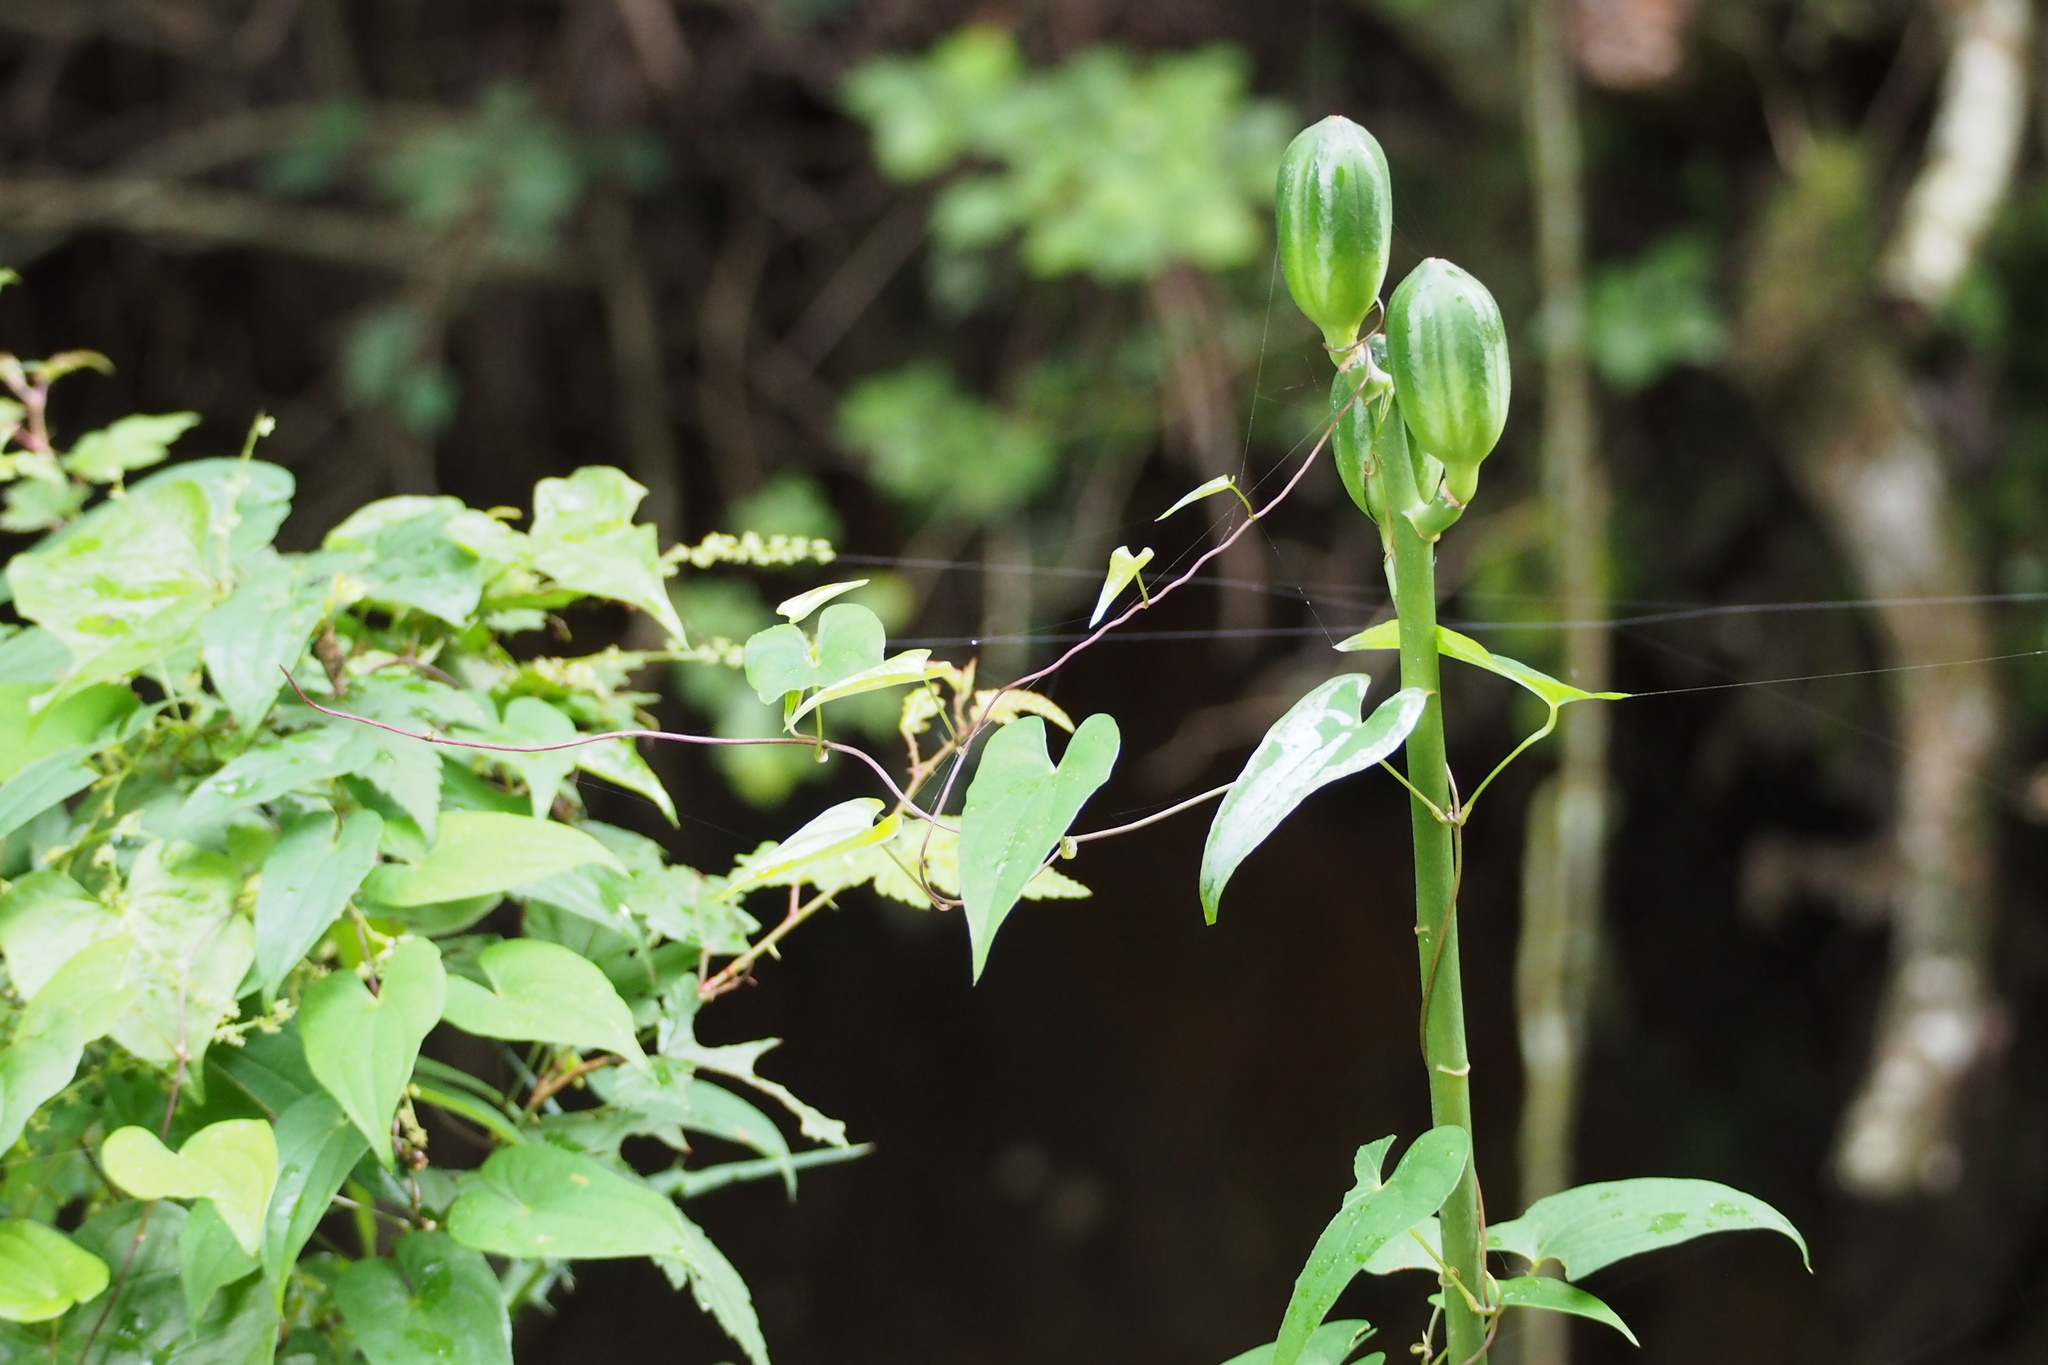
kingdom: Plantae
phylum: Tracheophyta
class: Liliopsida
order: Liliales
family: Liliaceae
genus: Cardiocrinum
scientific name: Cardiocrinum cordatum
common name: Lily
